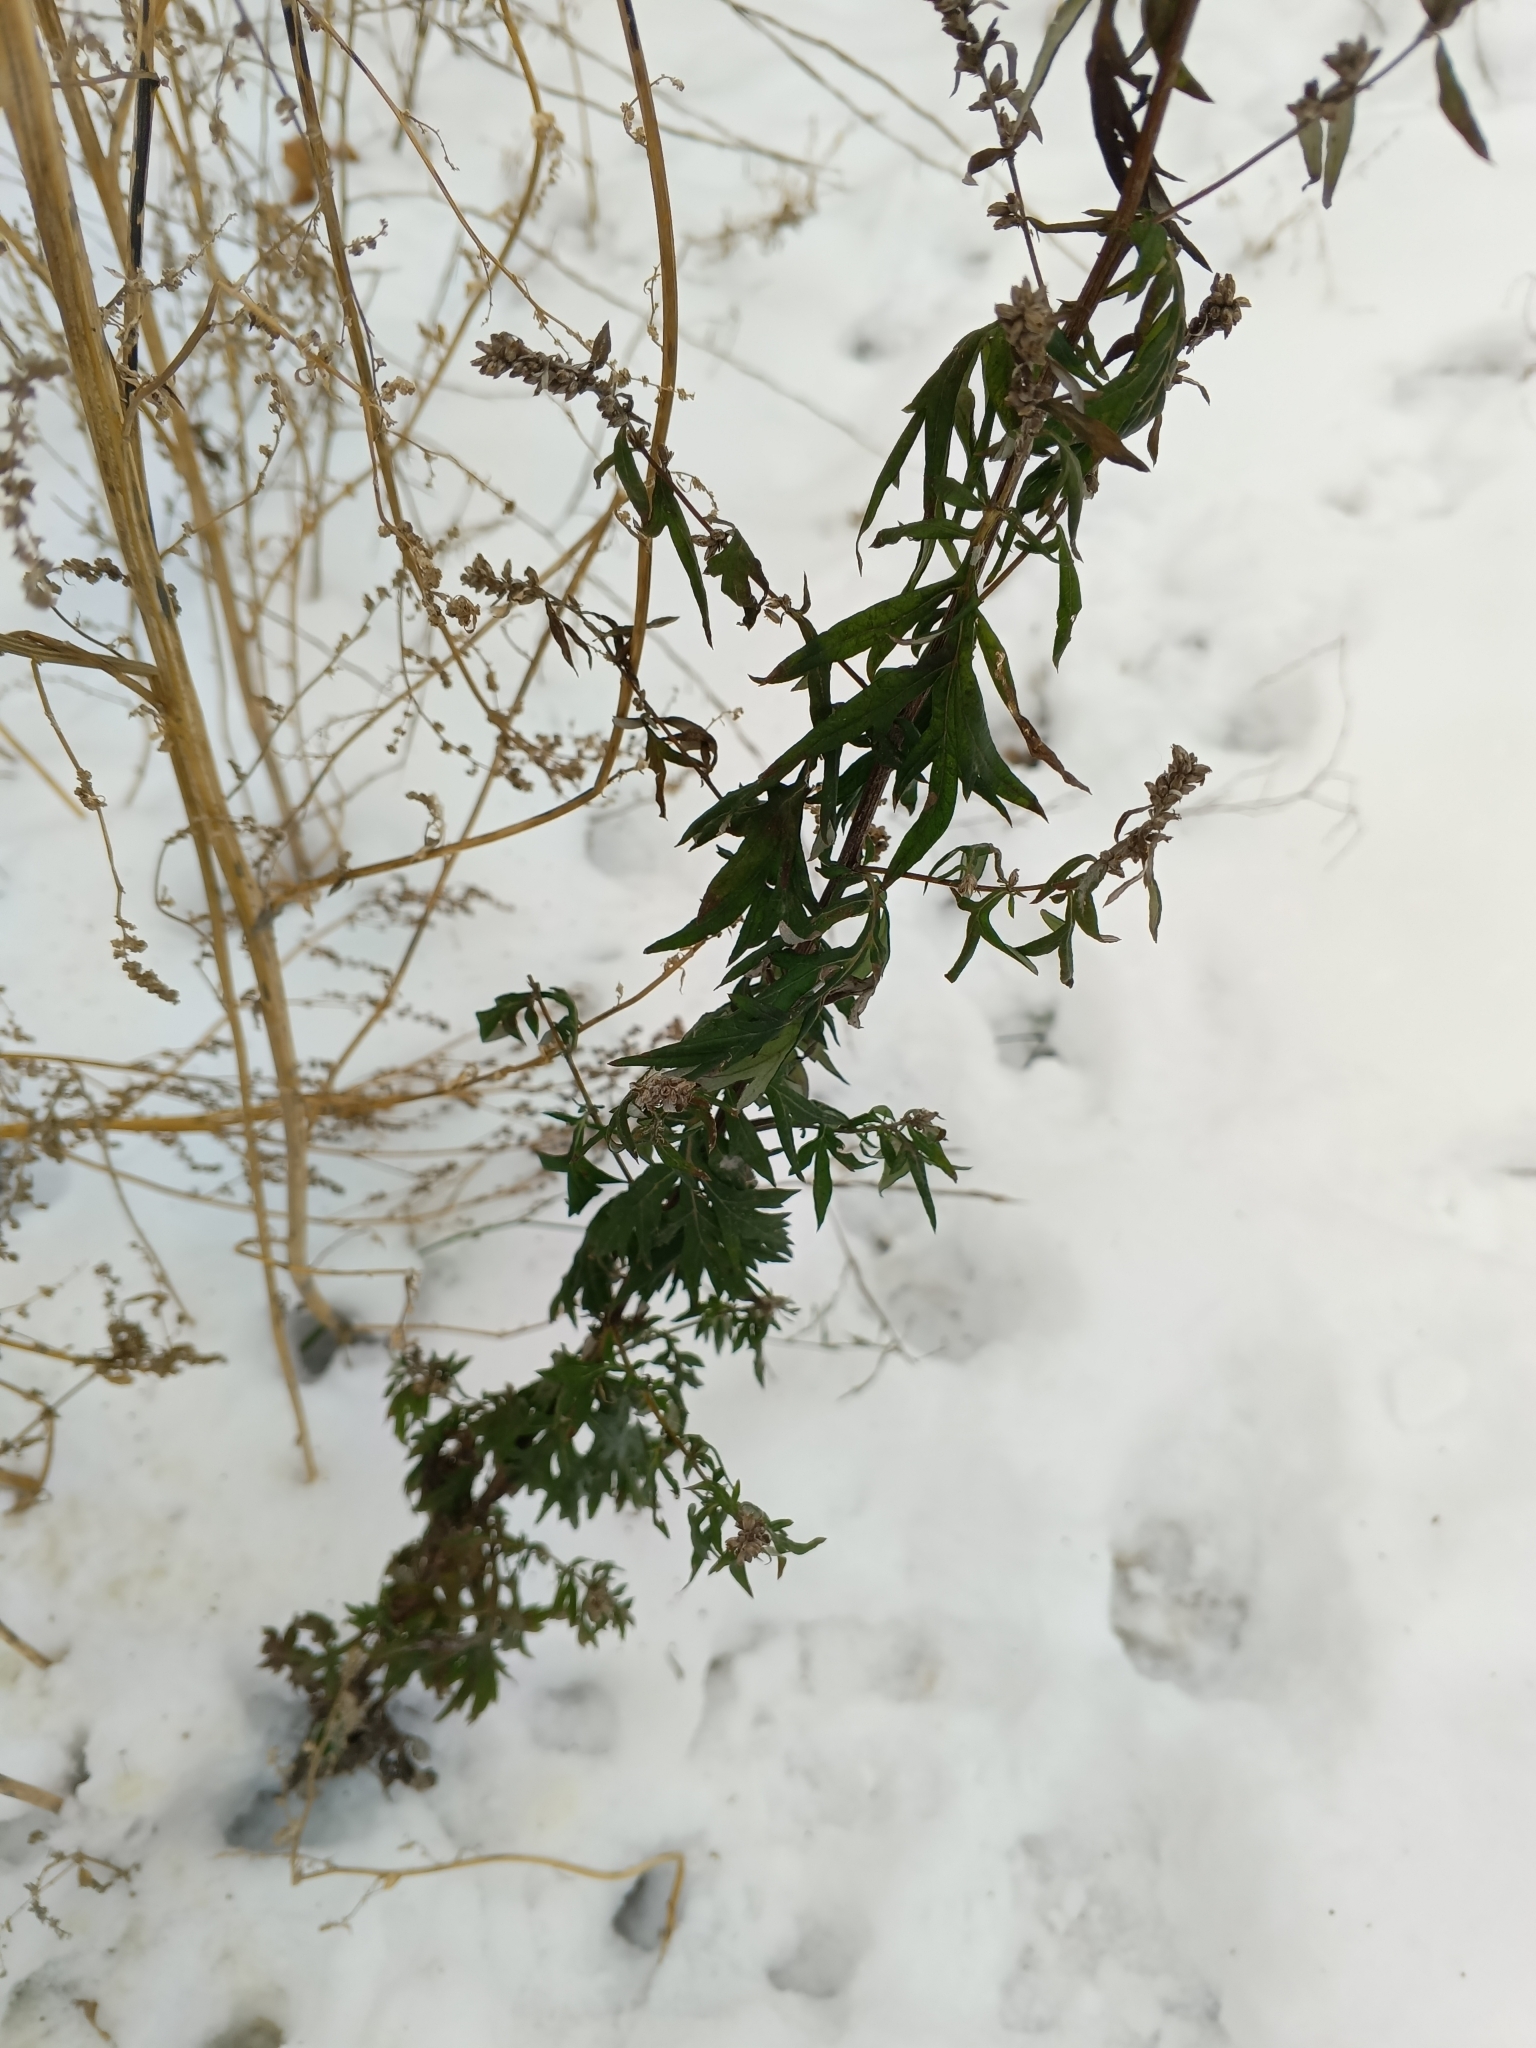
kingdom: Plantae
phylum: Tracheophyta
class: Magnoliopsida
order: Asterales
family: Asteraceae
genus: Artemisia
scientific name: Artemisia vulgaris
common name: Mugwort
